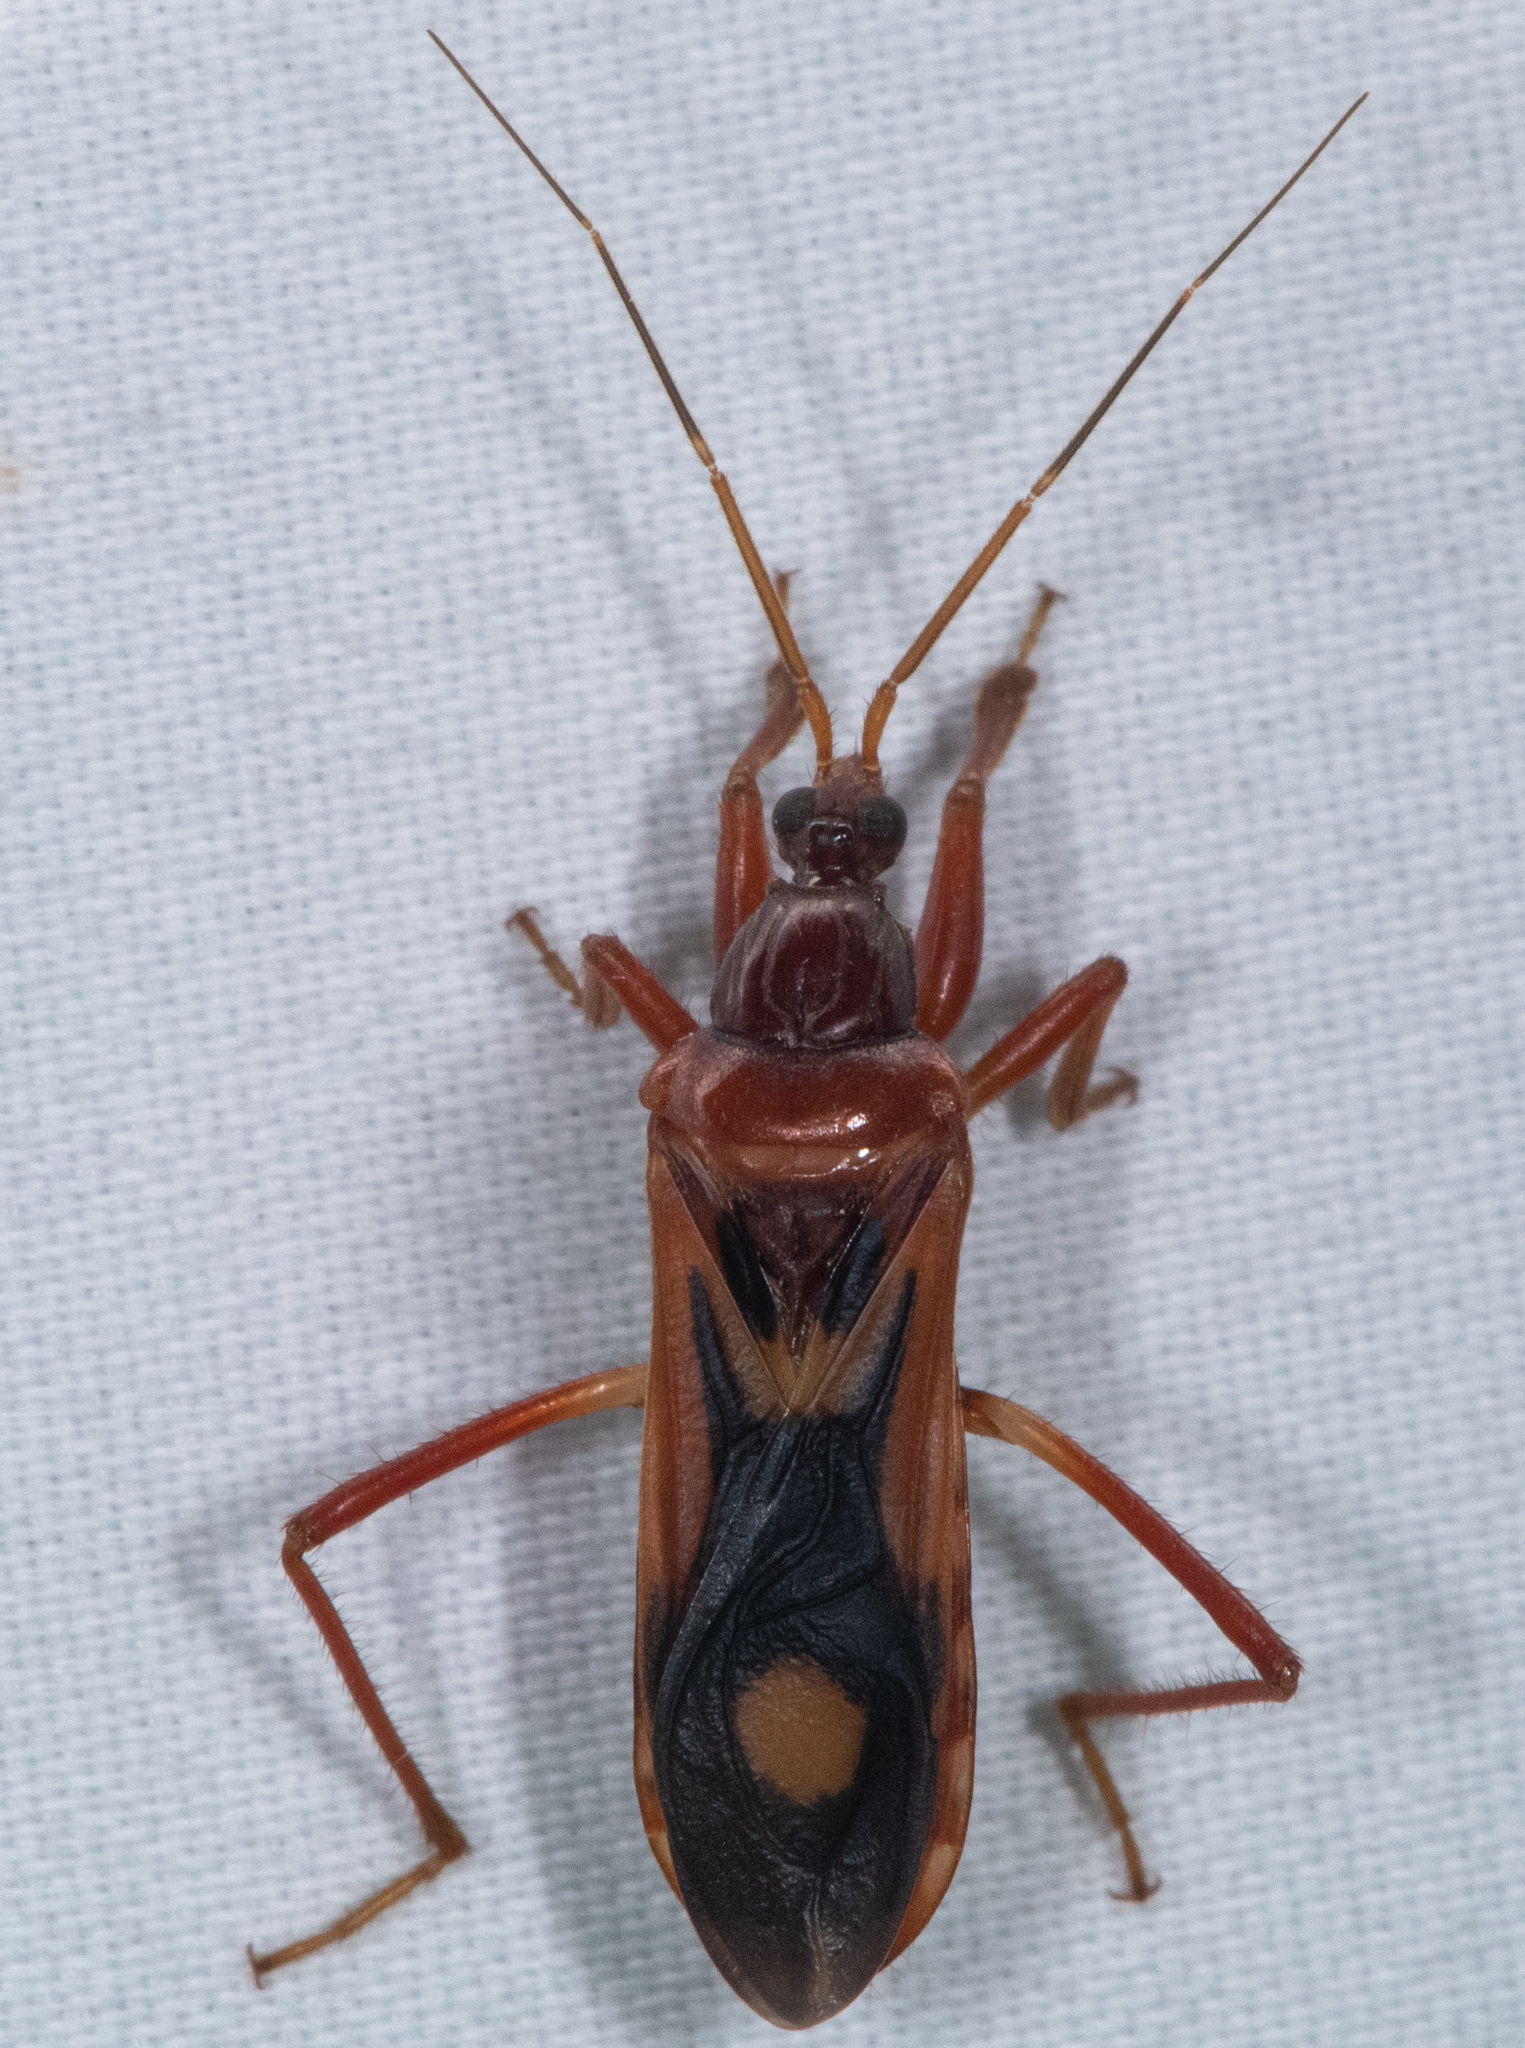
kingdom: Animalia
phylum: Arthropoda
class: Insecta
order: Hemiptera
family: Reduviidae
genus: Rasahus
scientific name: Rasahus thoracicus
